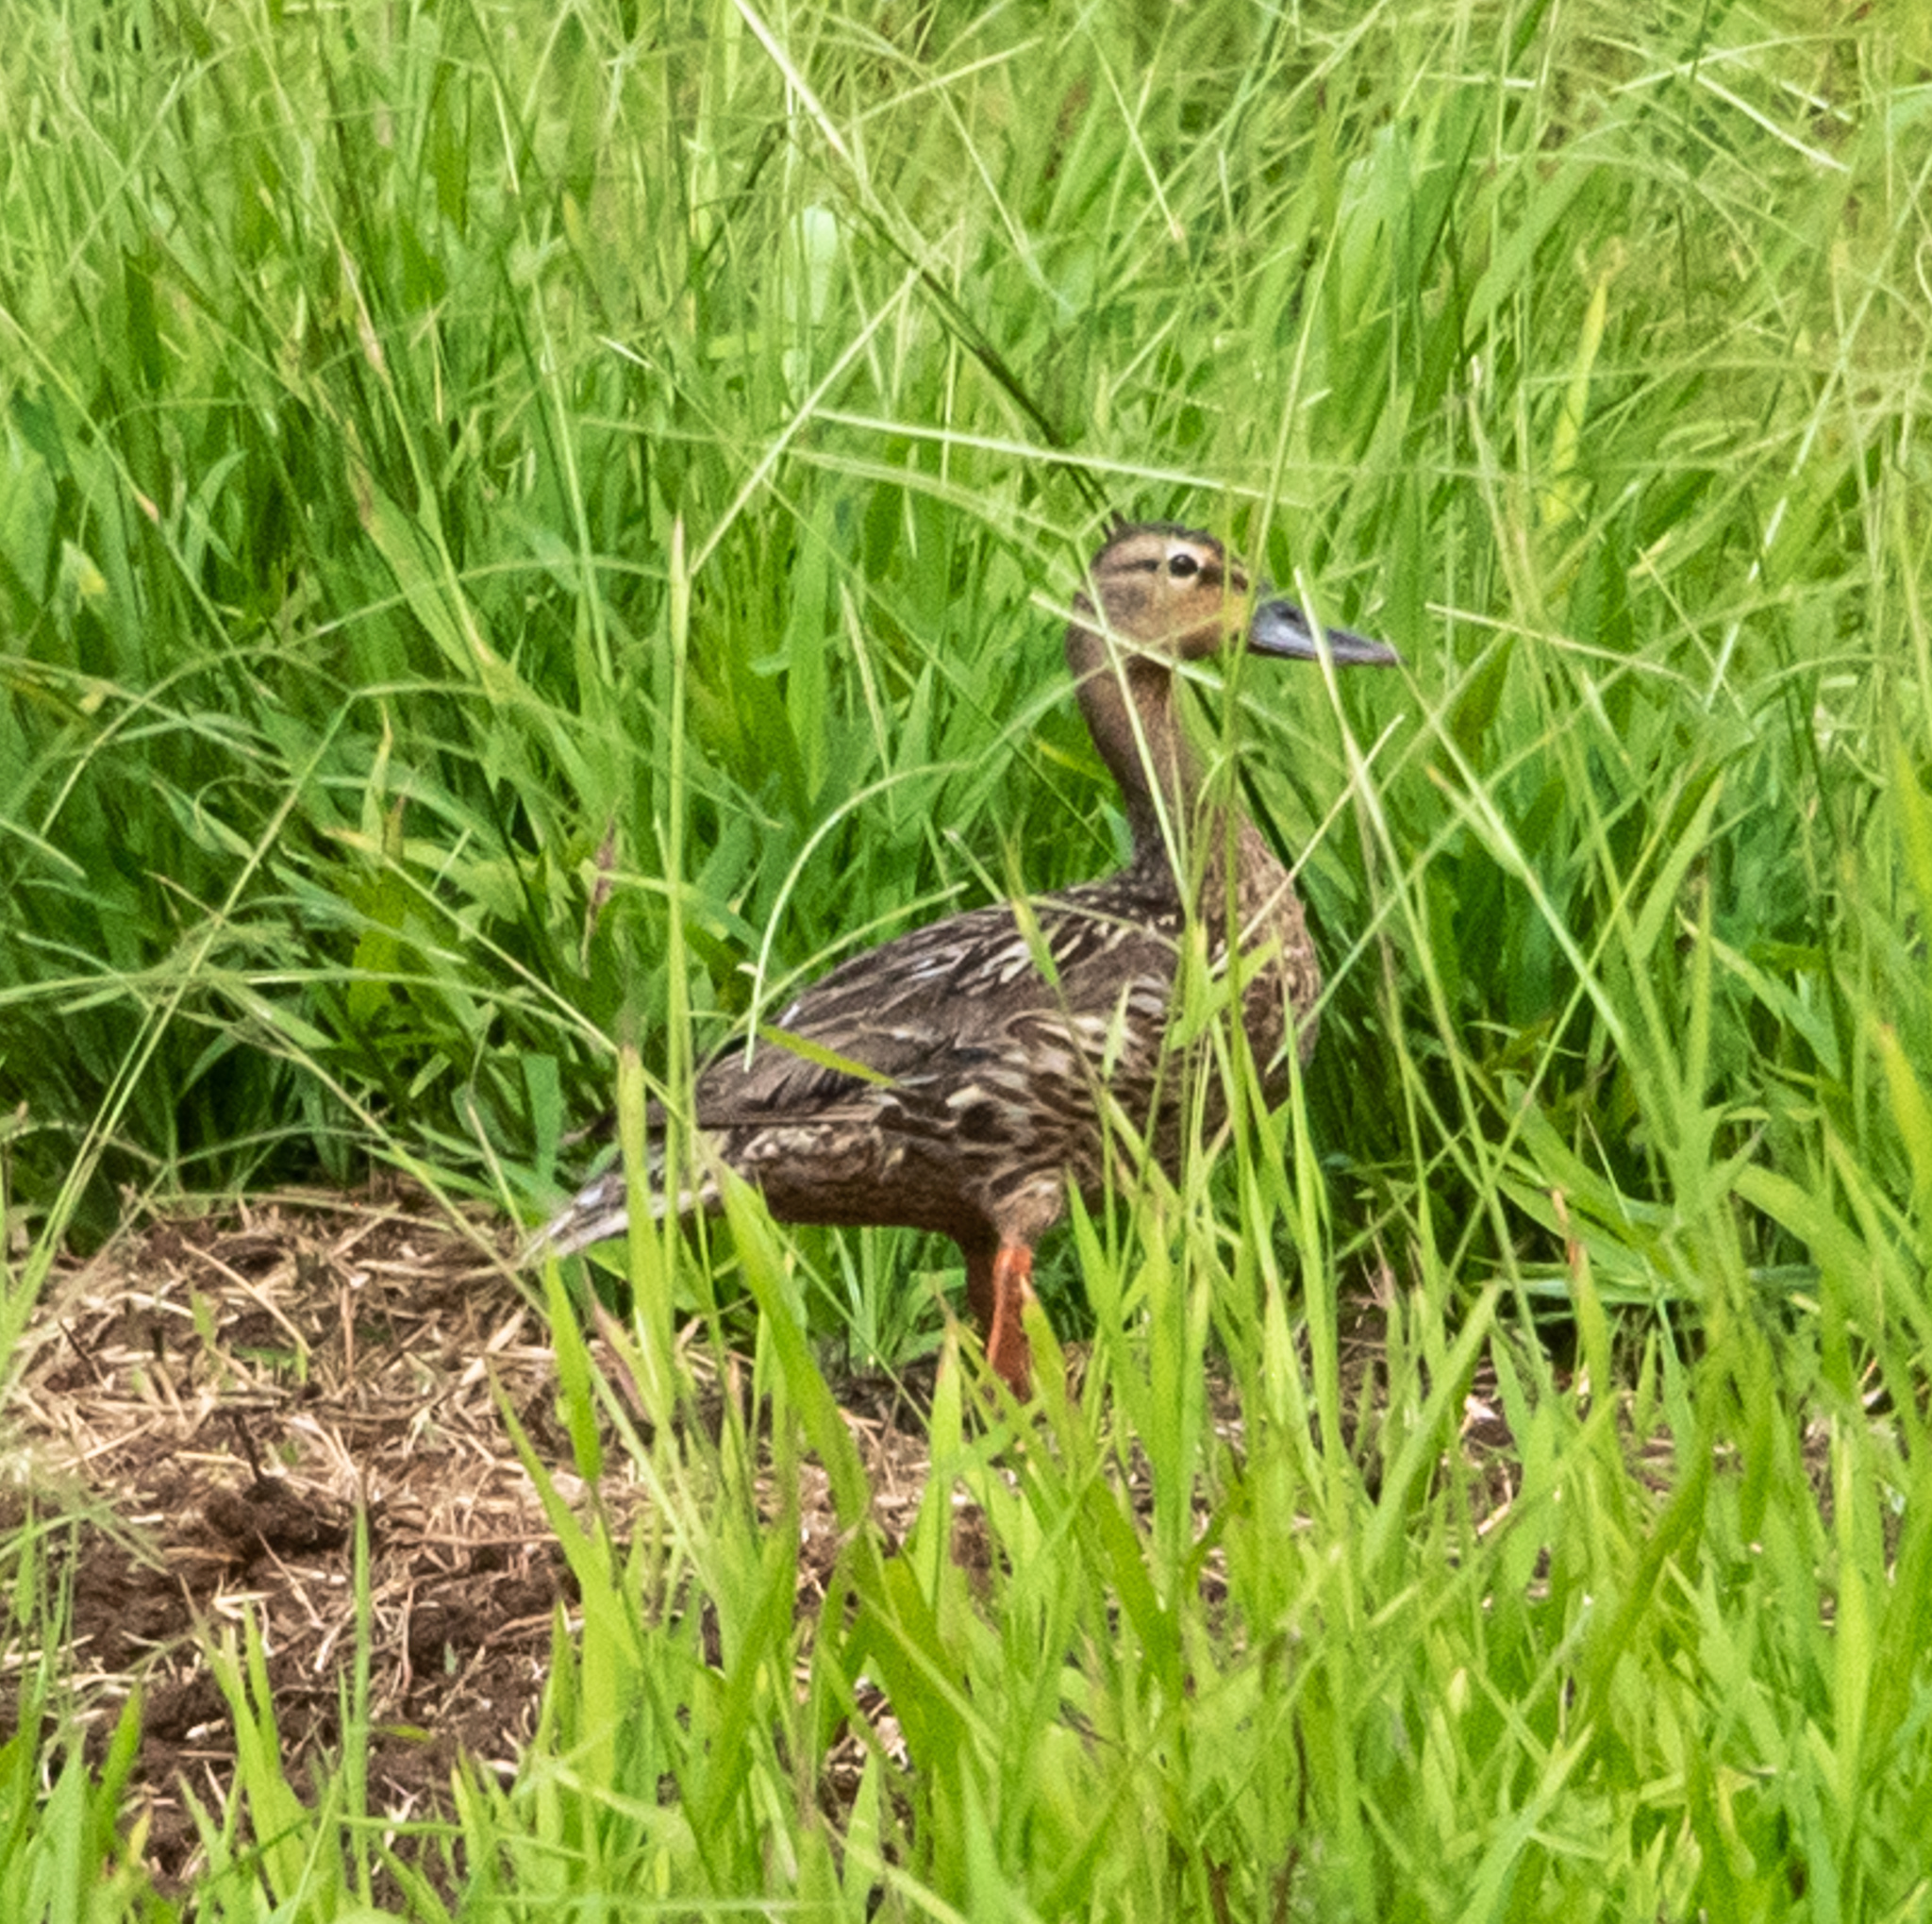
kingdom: Animalia
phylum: Chordata
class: Aves
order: Anseriformes
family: Anatidae
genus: Anas
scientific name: Anas wyvilliana
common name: Hawaiian duck
